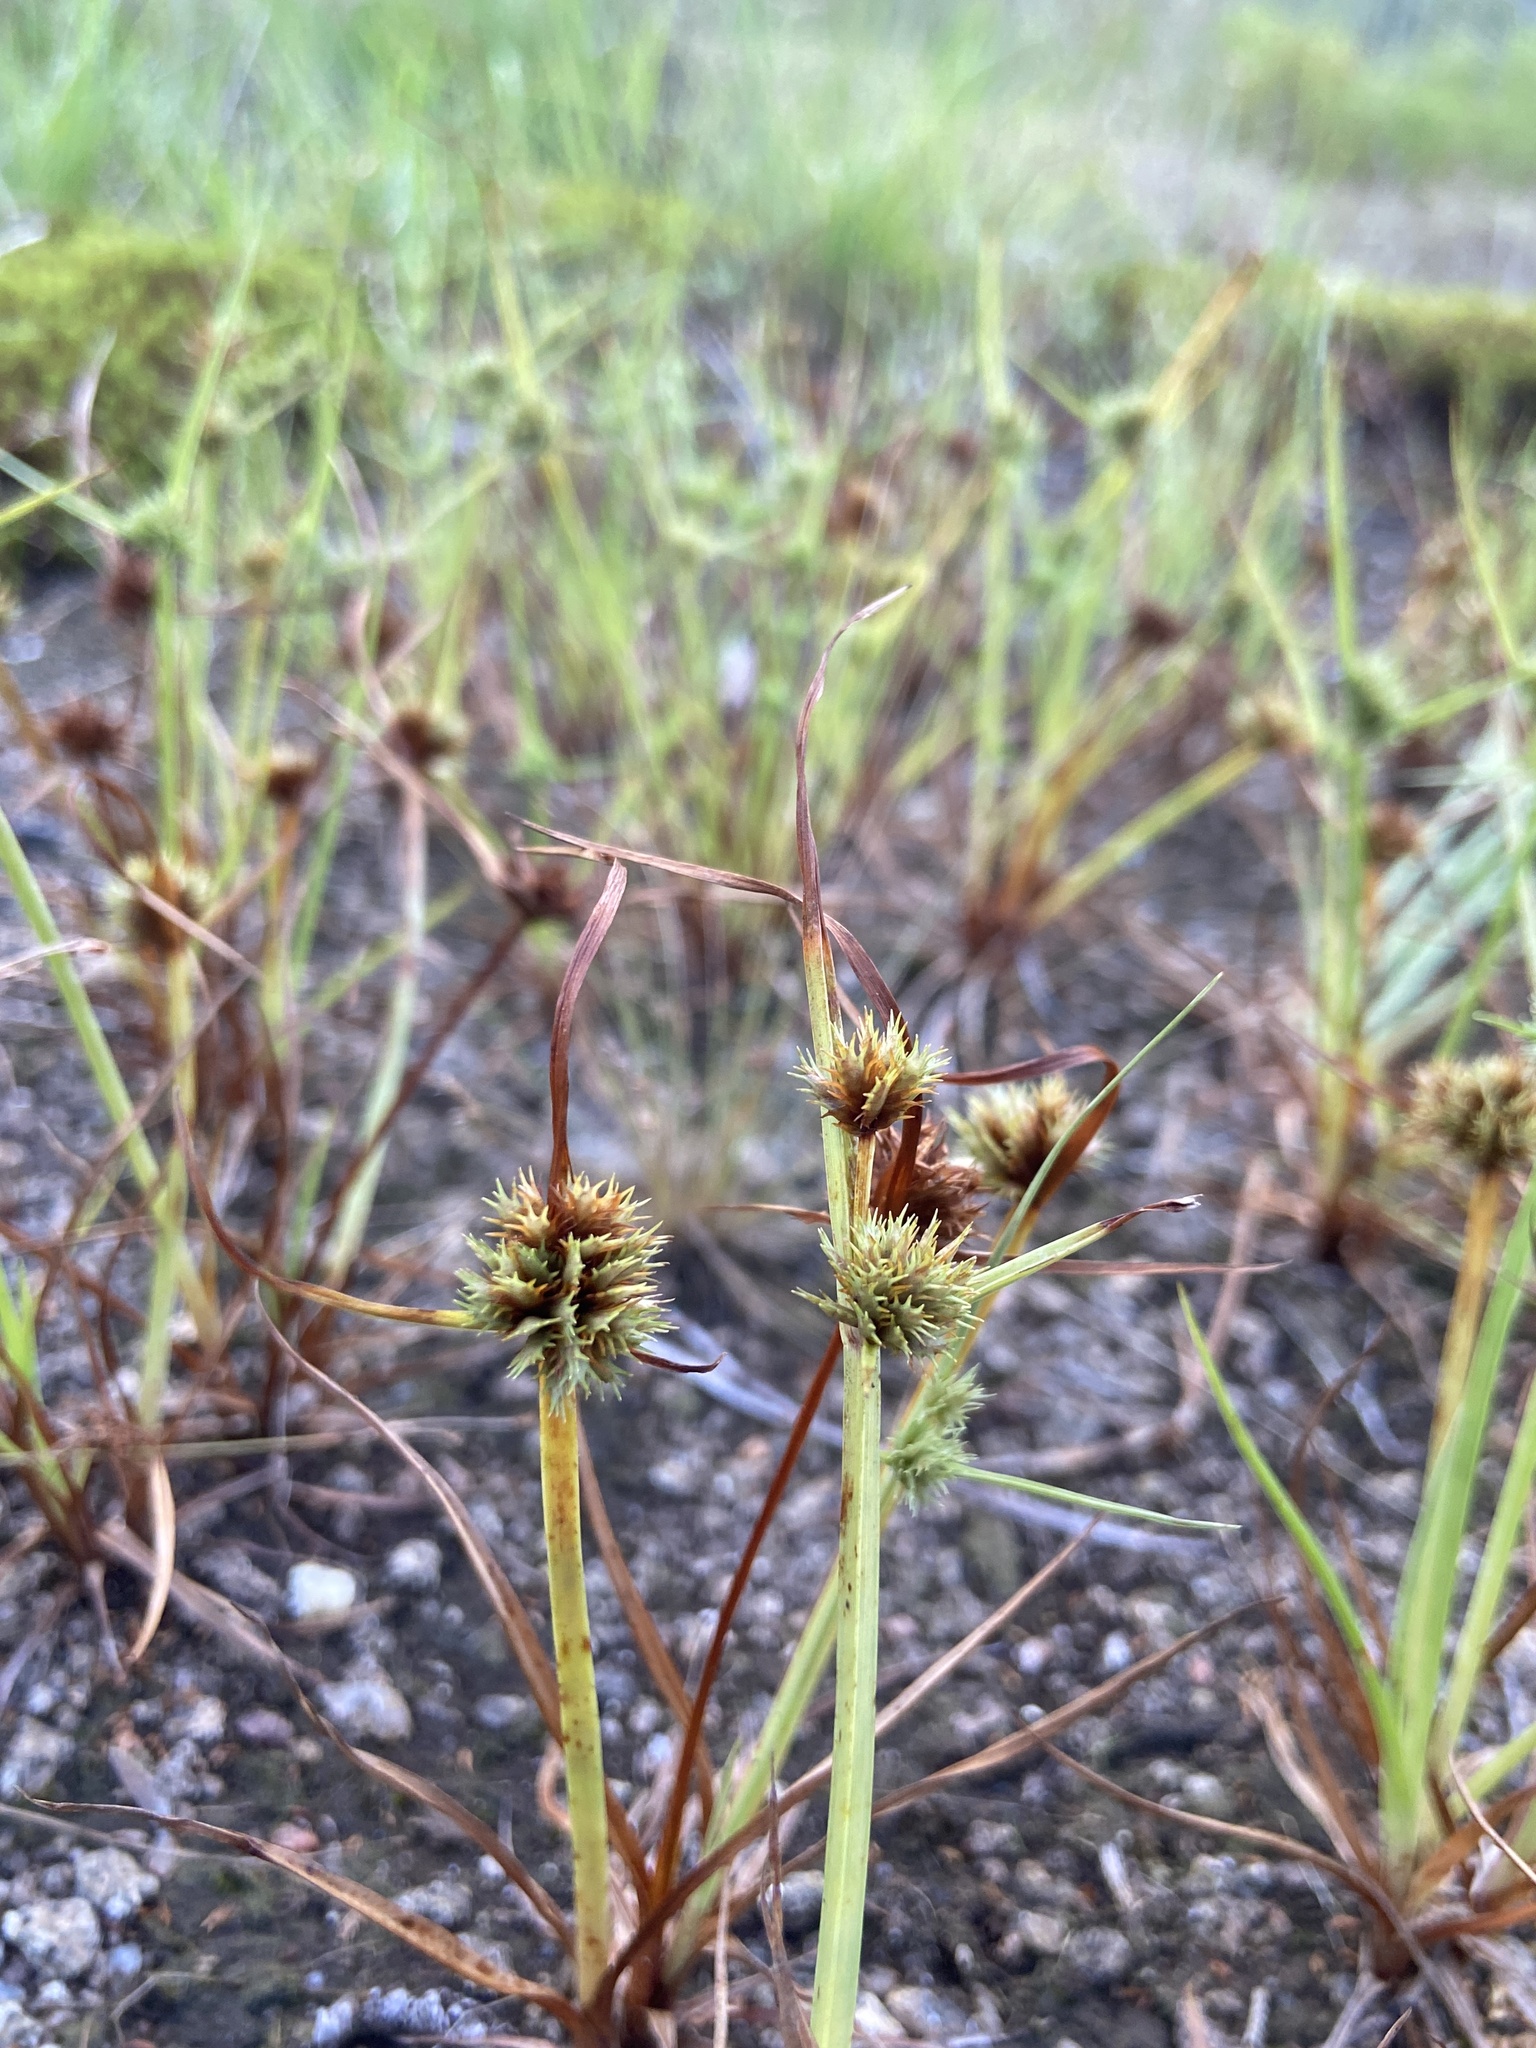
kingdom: Plantae
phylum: Tracheophyta
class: Liliopsida
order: Poales
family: Cyperaceae
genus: Cyperus
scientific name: Cyperus squarrosus
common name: Awned cyperus
